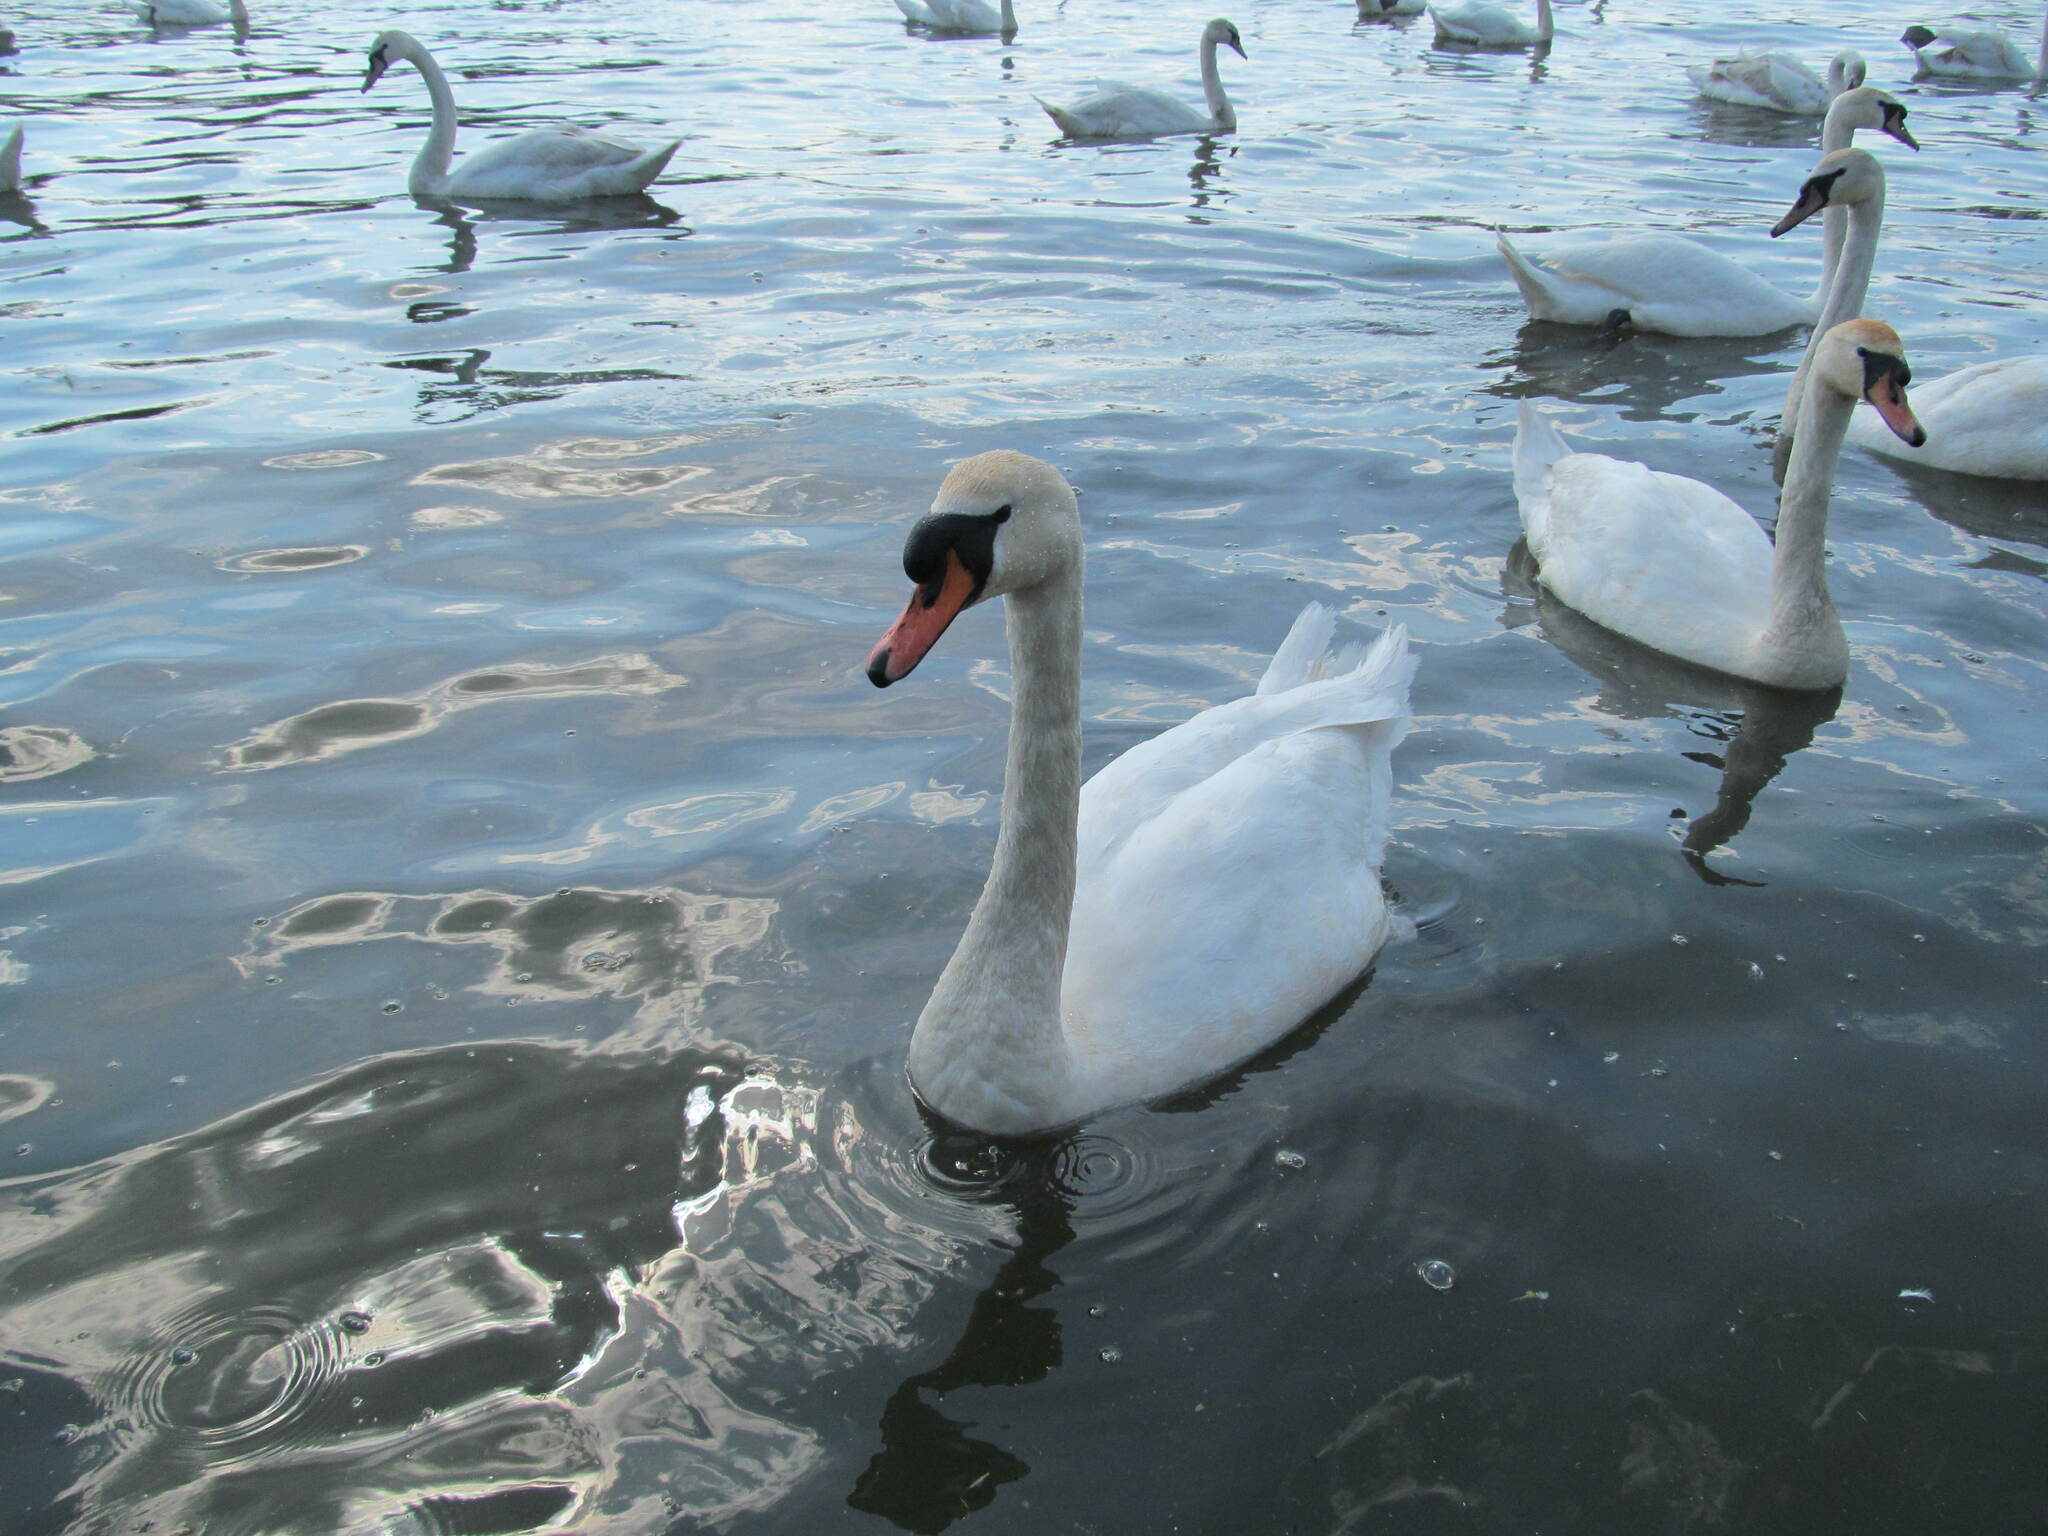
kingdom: Animalia
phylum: Chordata
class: Aves
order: Anseriformes
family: Anatidae
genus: Cygnus
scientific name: Cygnus olor
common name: Mute swan
